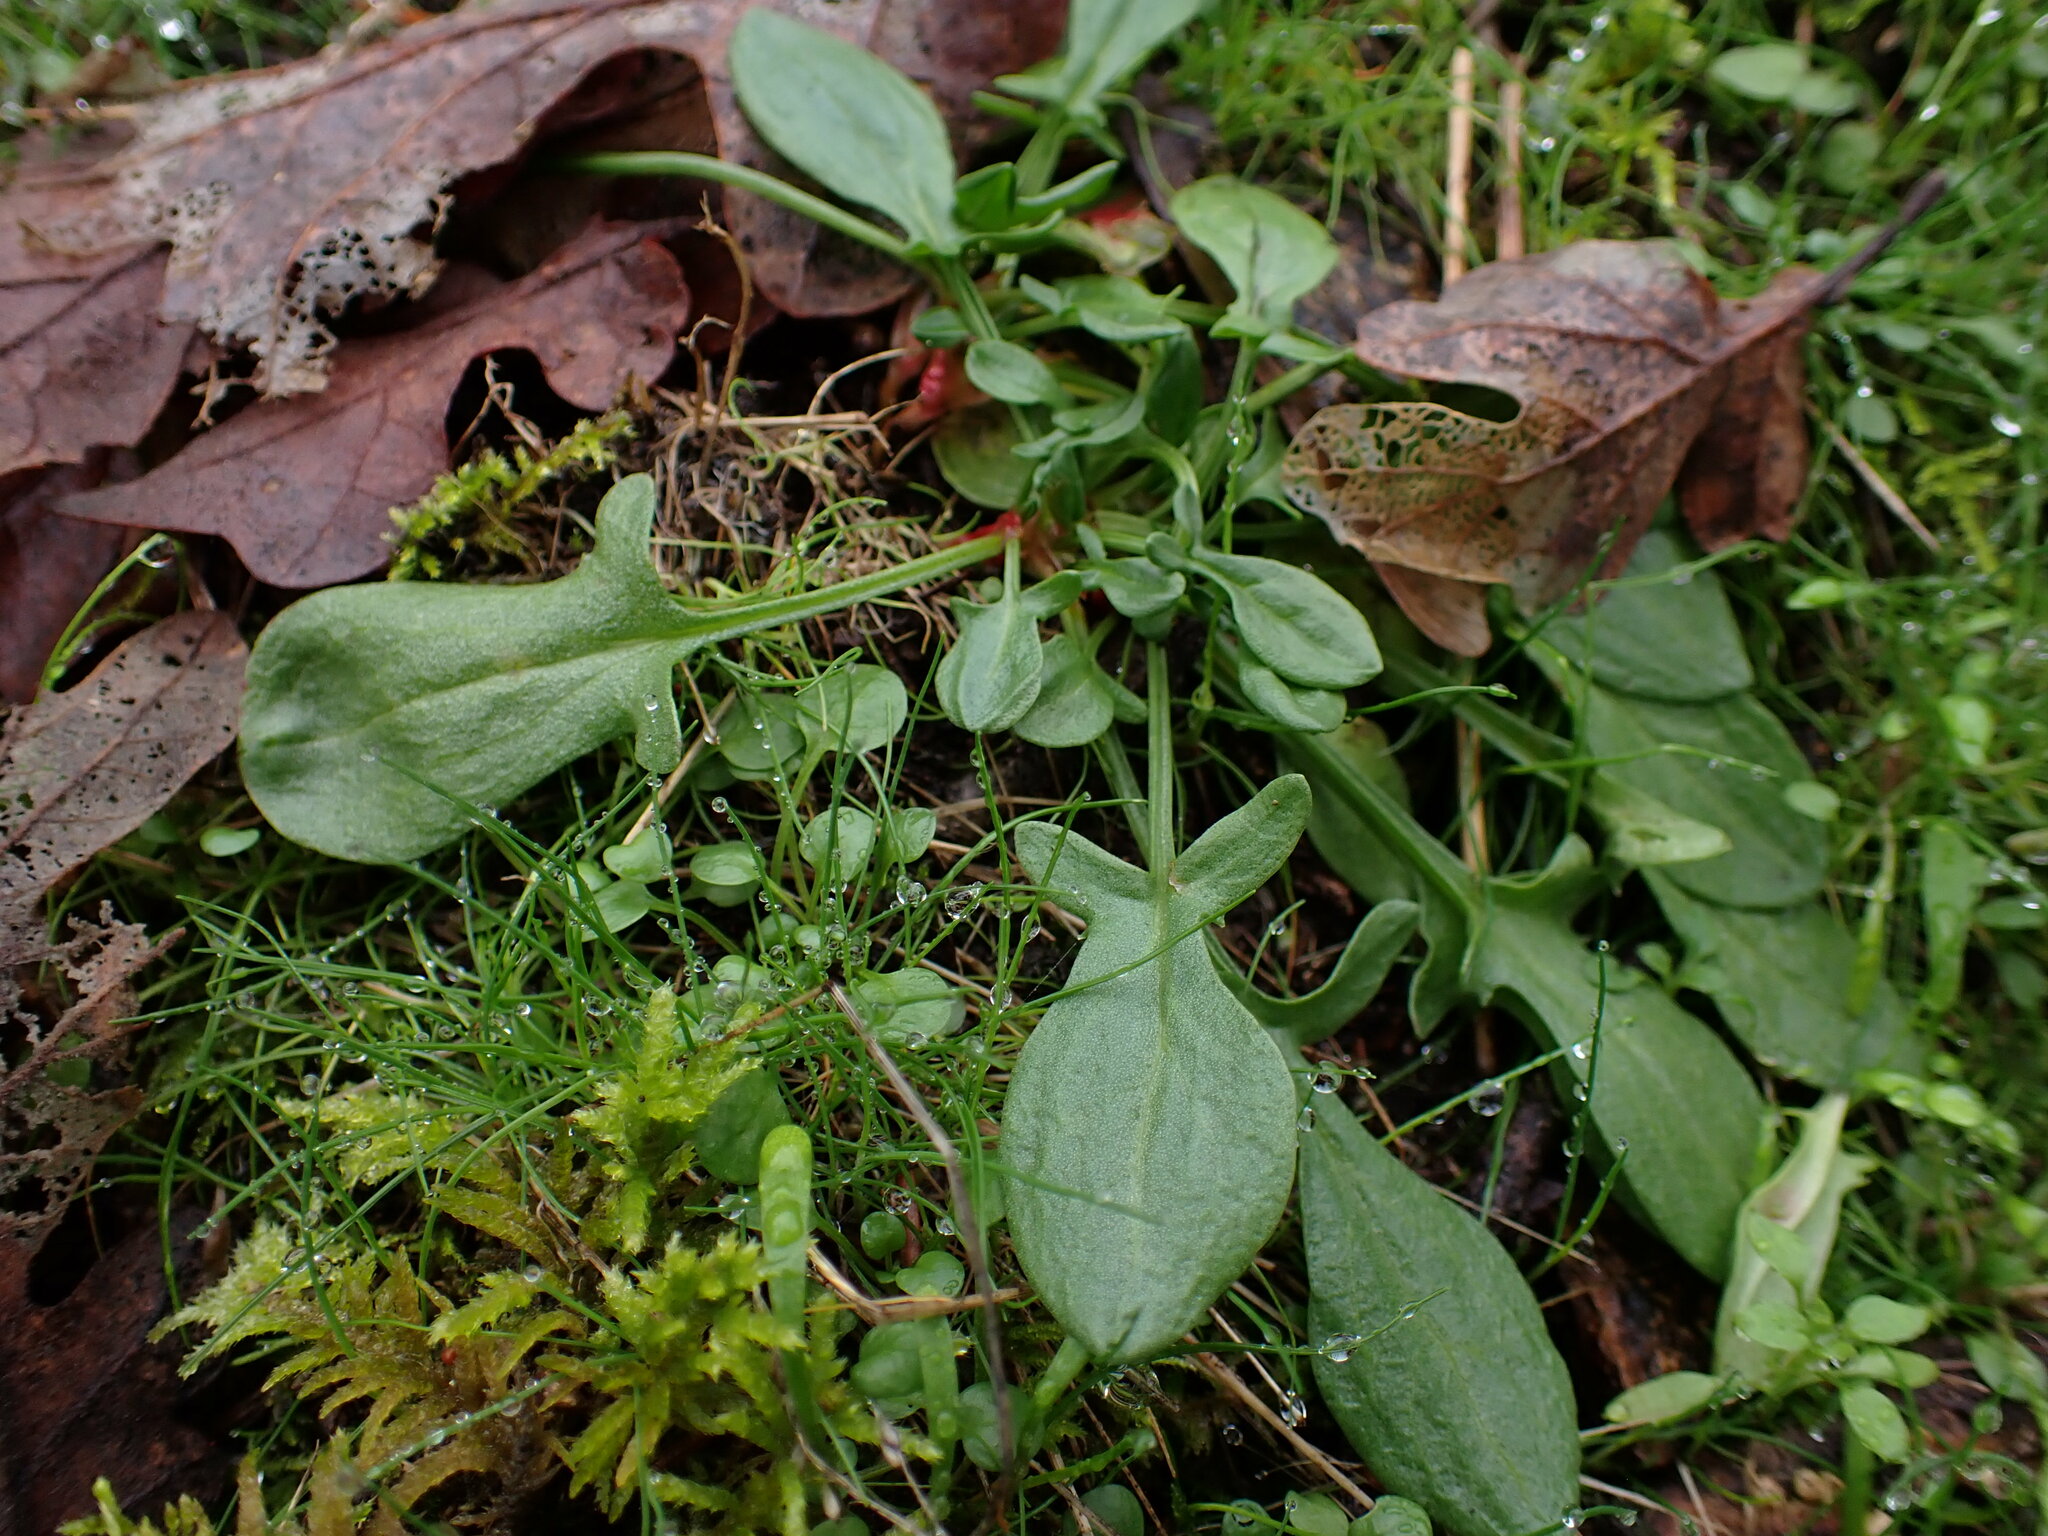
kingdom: Plantae
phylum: Tracheophyta
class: Magnoliopsida
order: Caryophyllales
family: Polygonaceae
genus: Rumex
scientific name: Rumex acetosella
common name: Common sheep sorrel
